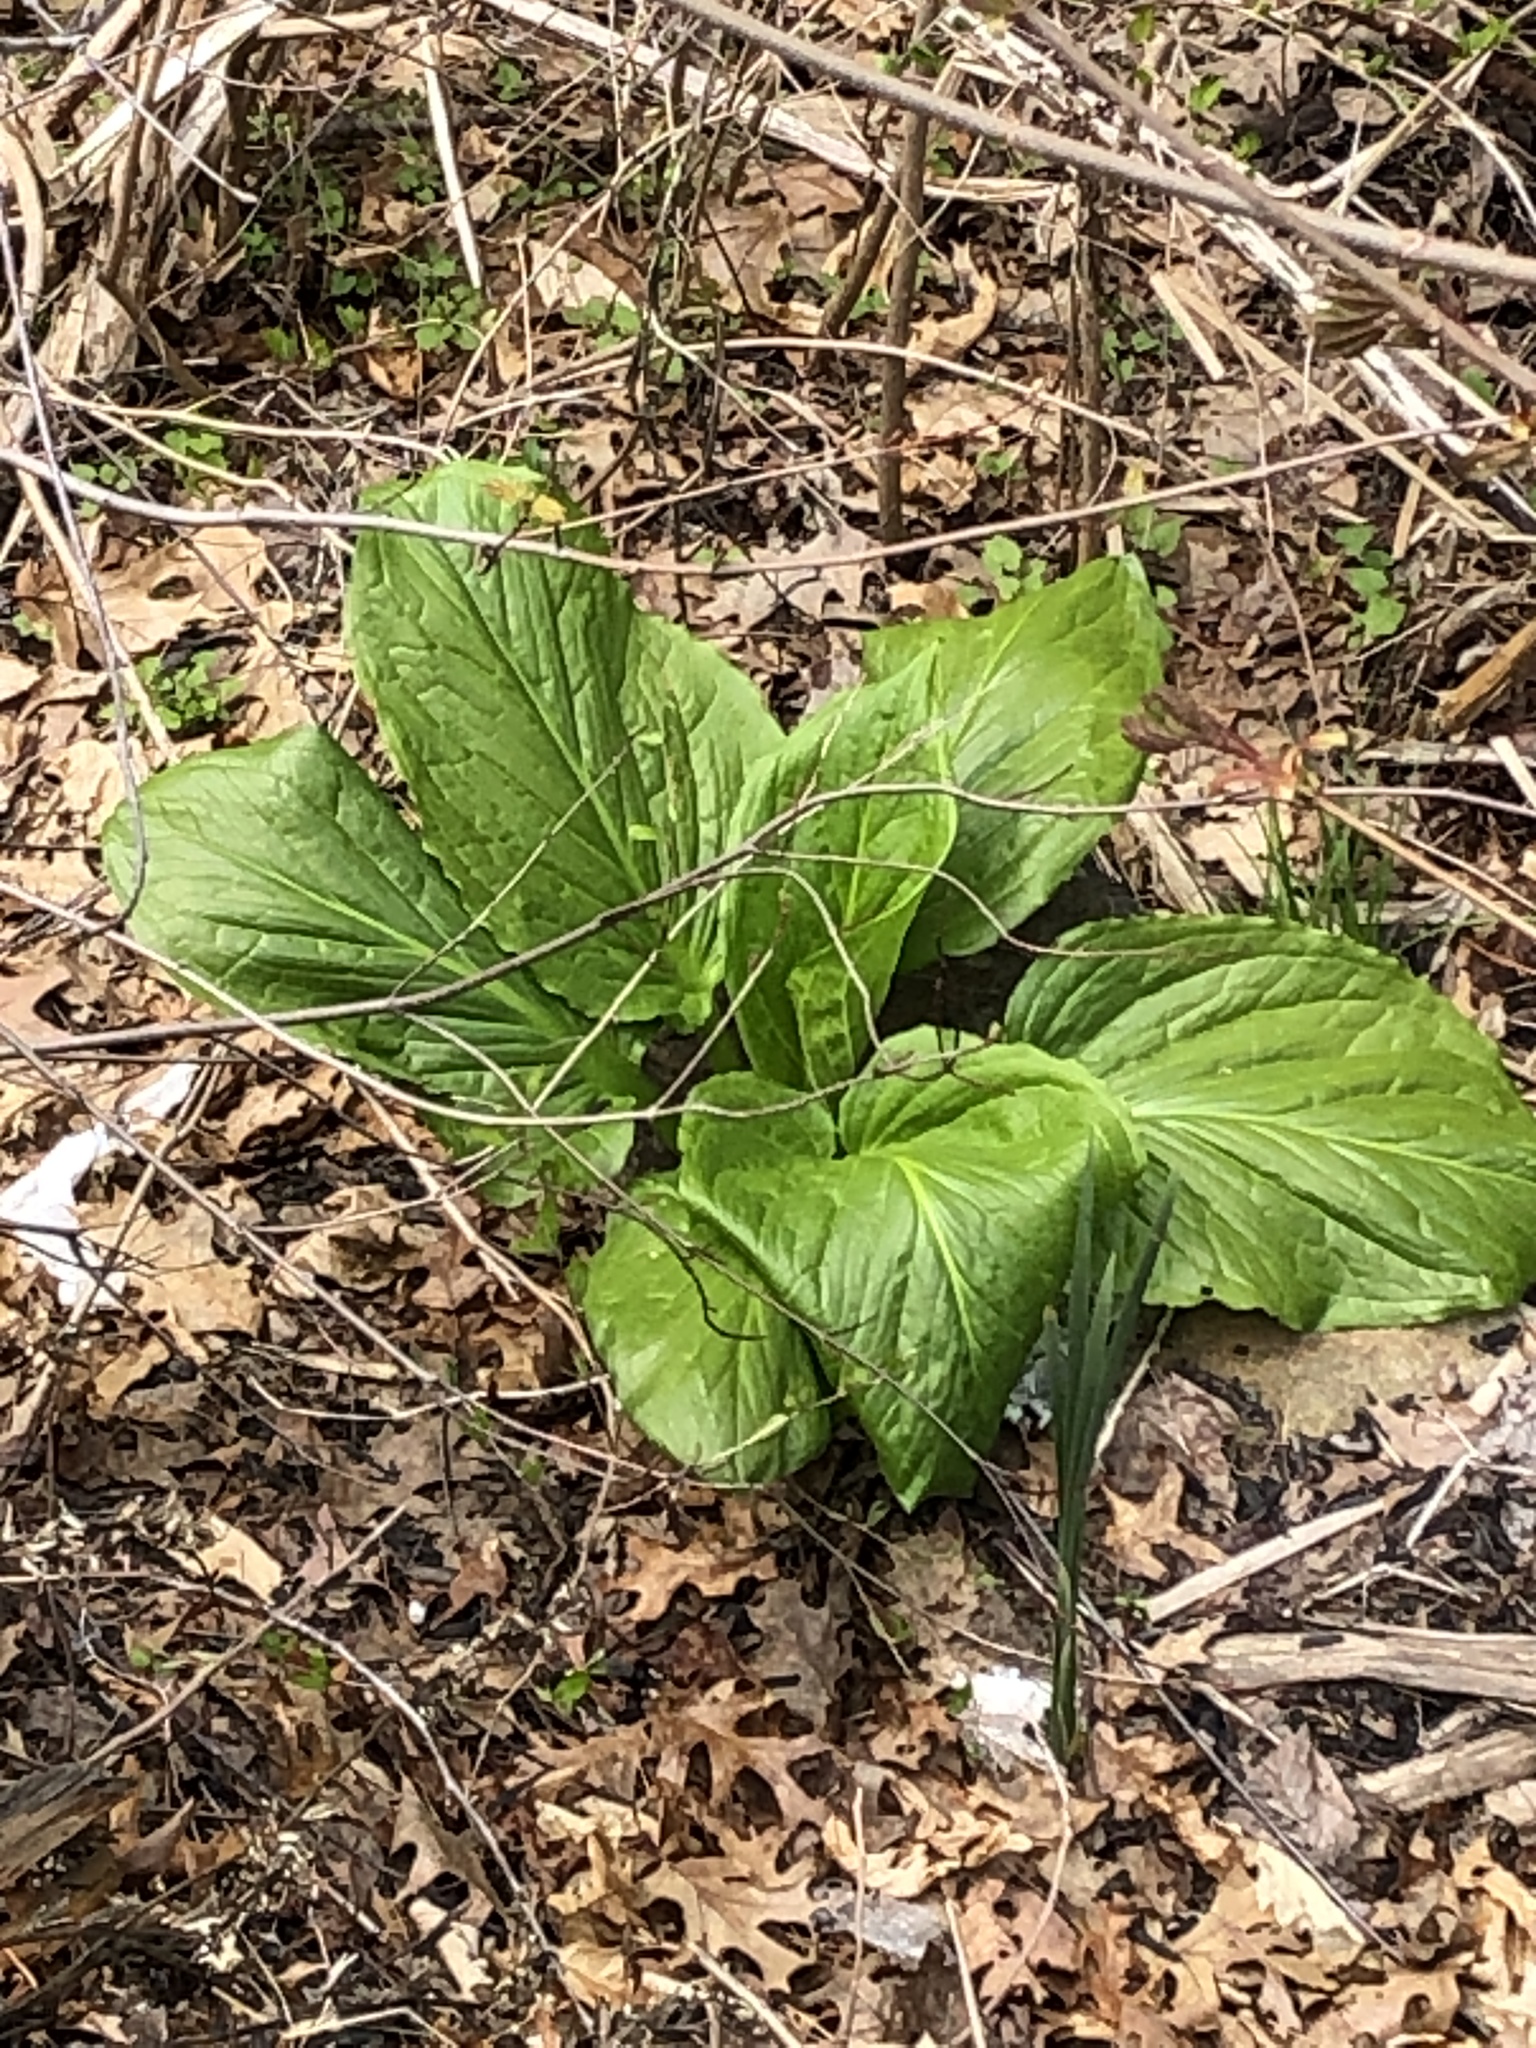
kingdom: Plantae
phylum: Tracheophyta
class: Liliopsida
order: Alismatales
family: Araceae
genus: Symplocarpus
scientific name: Symplocarpus foetidus
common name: Eastern skunk cabbage
